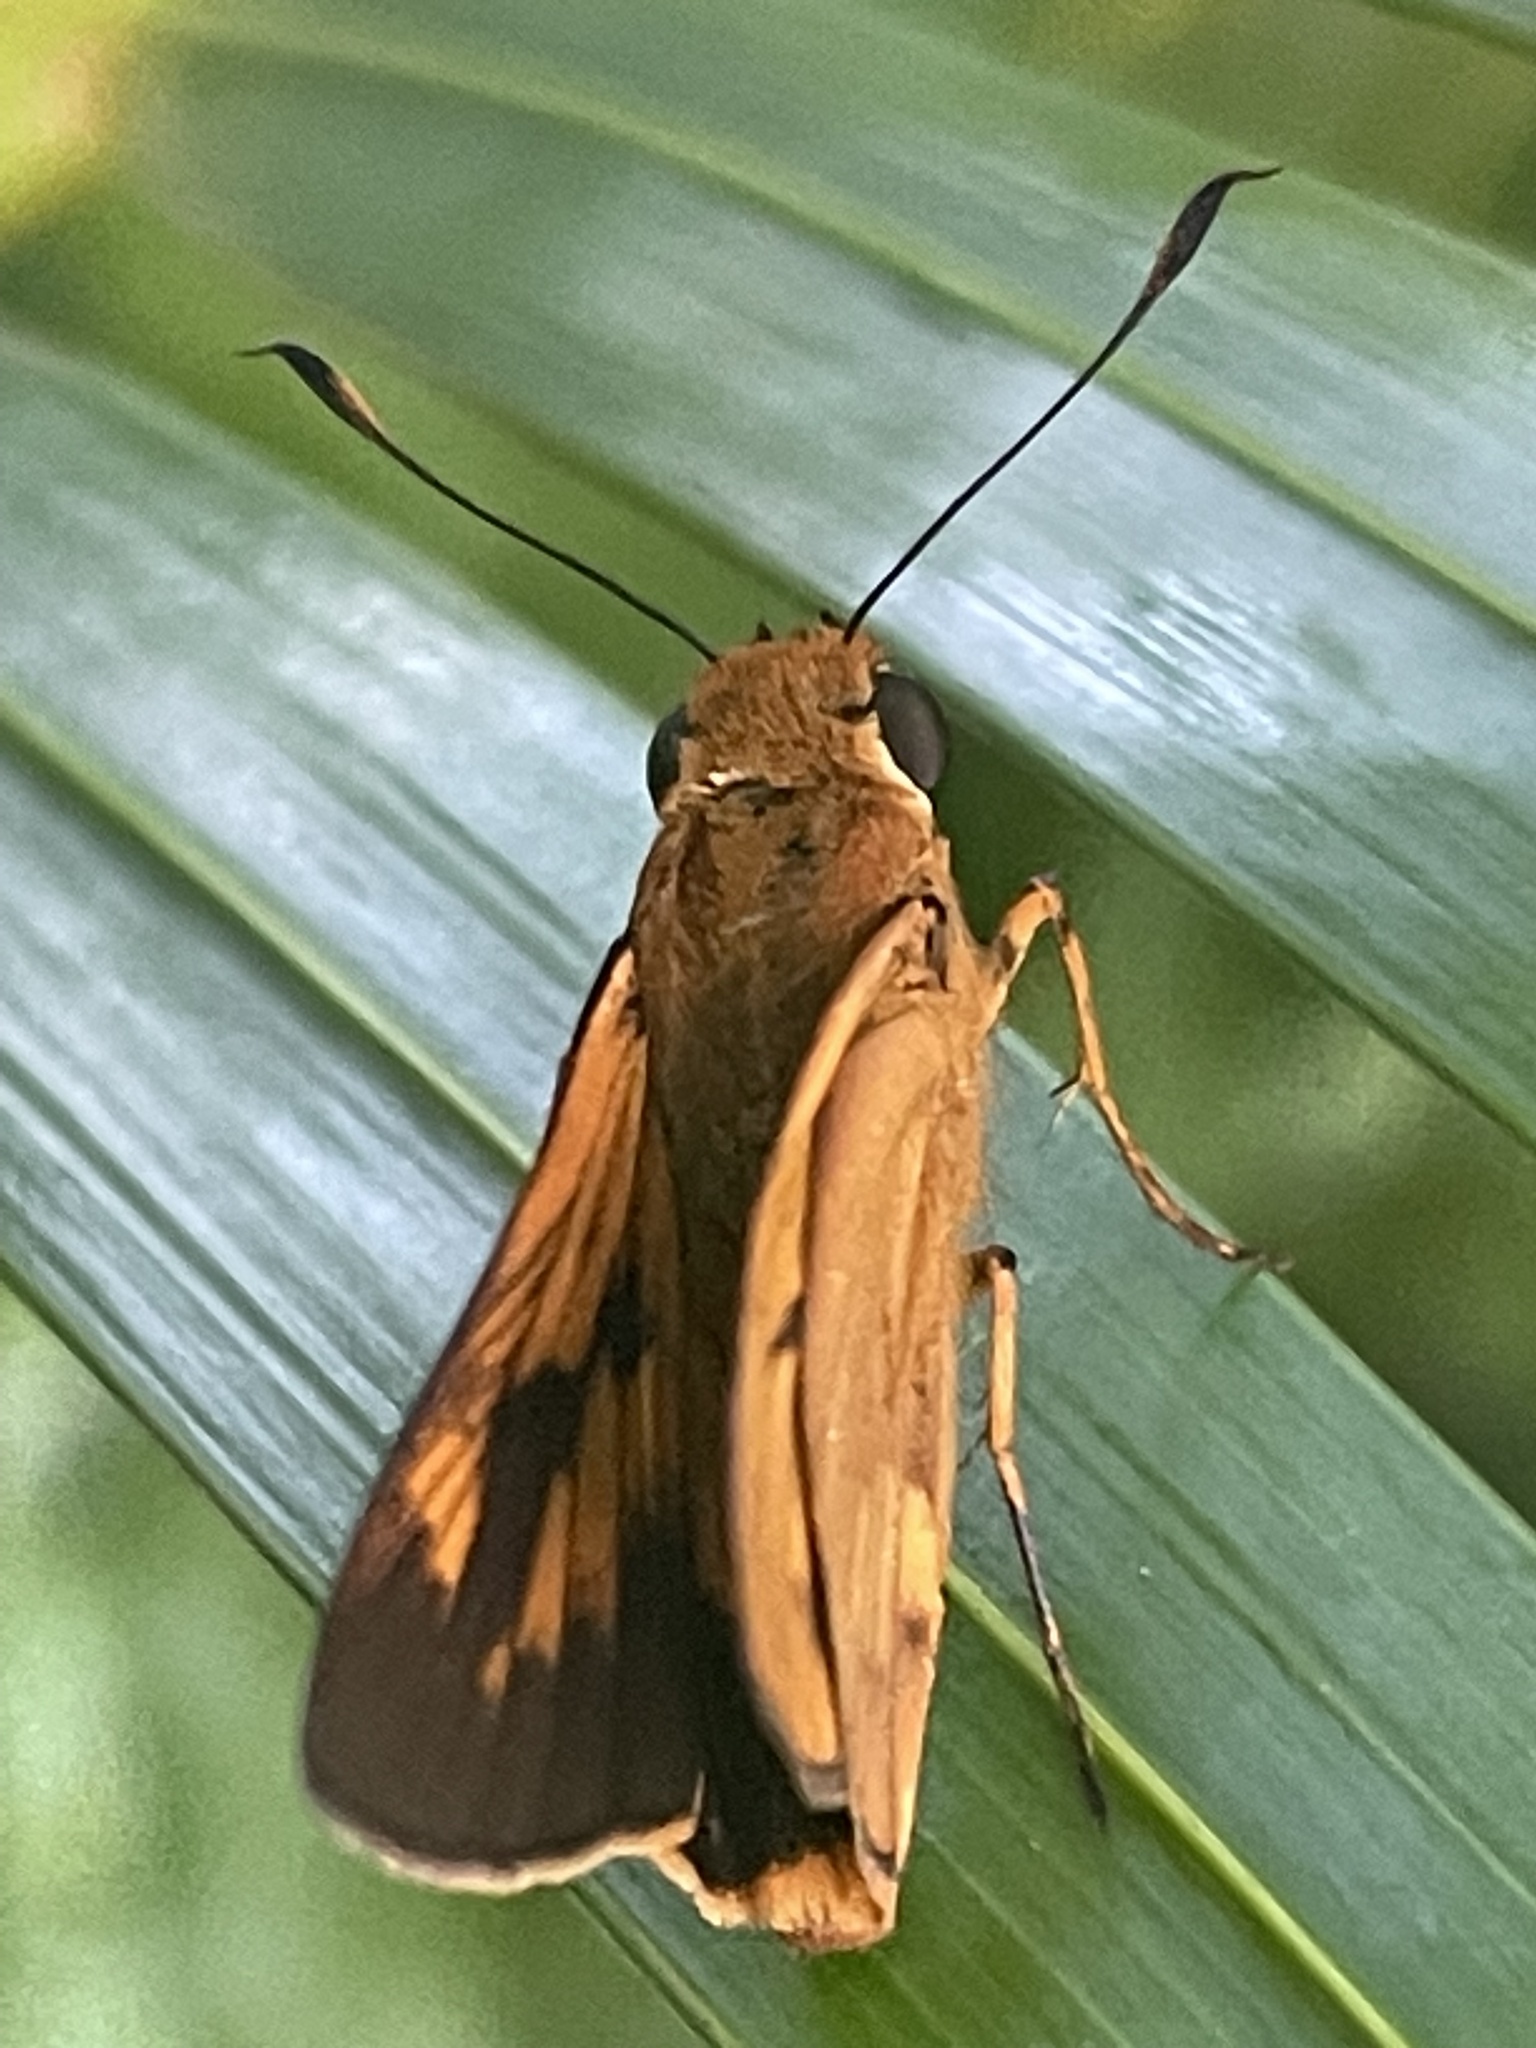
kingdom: Animalia
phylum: Arthropoda
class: Insecta
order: Lepidoptera
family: Hesperiidae
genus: Cephrenes
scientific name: Cephrenes augiades
